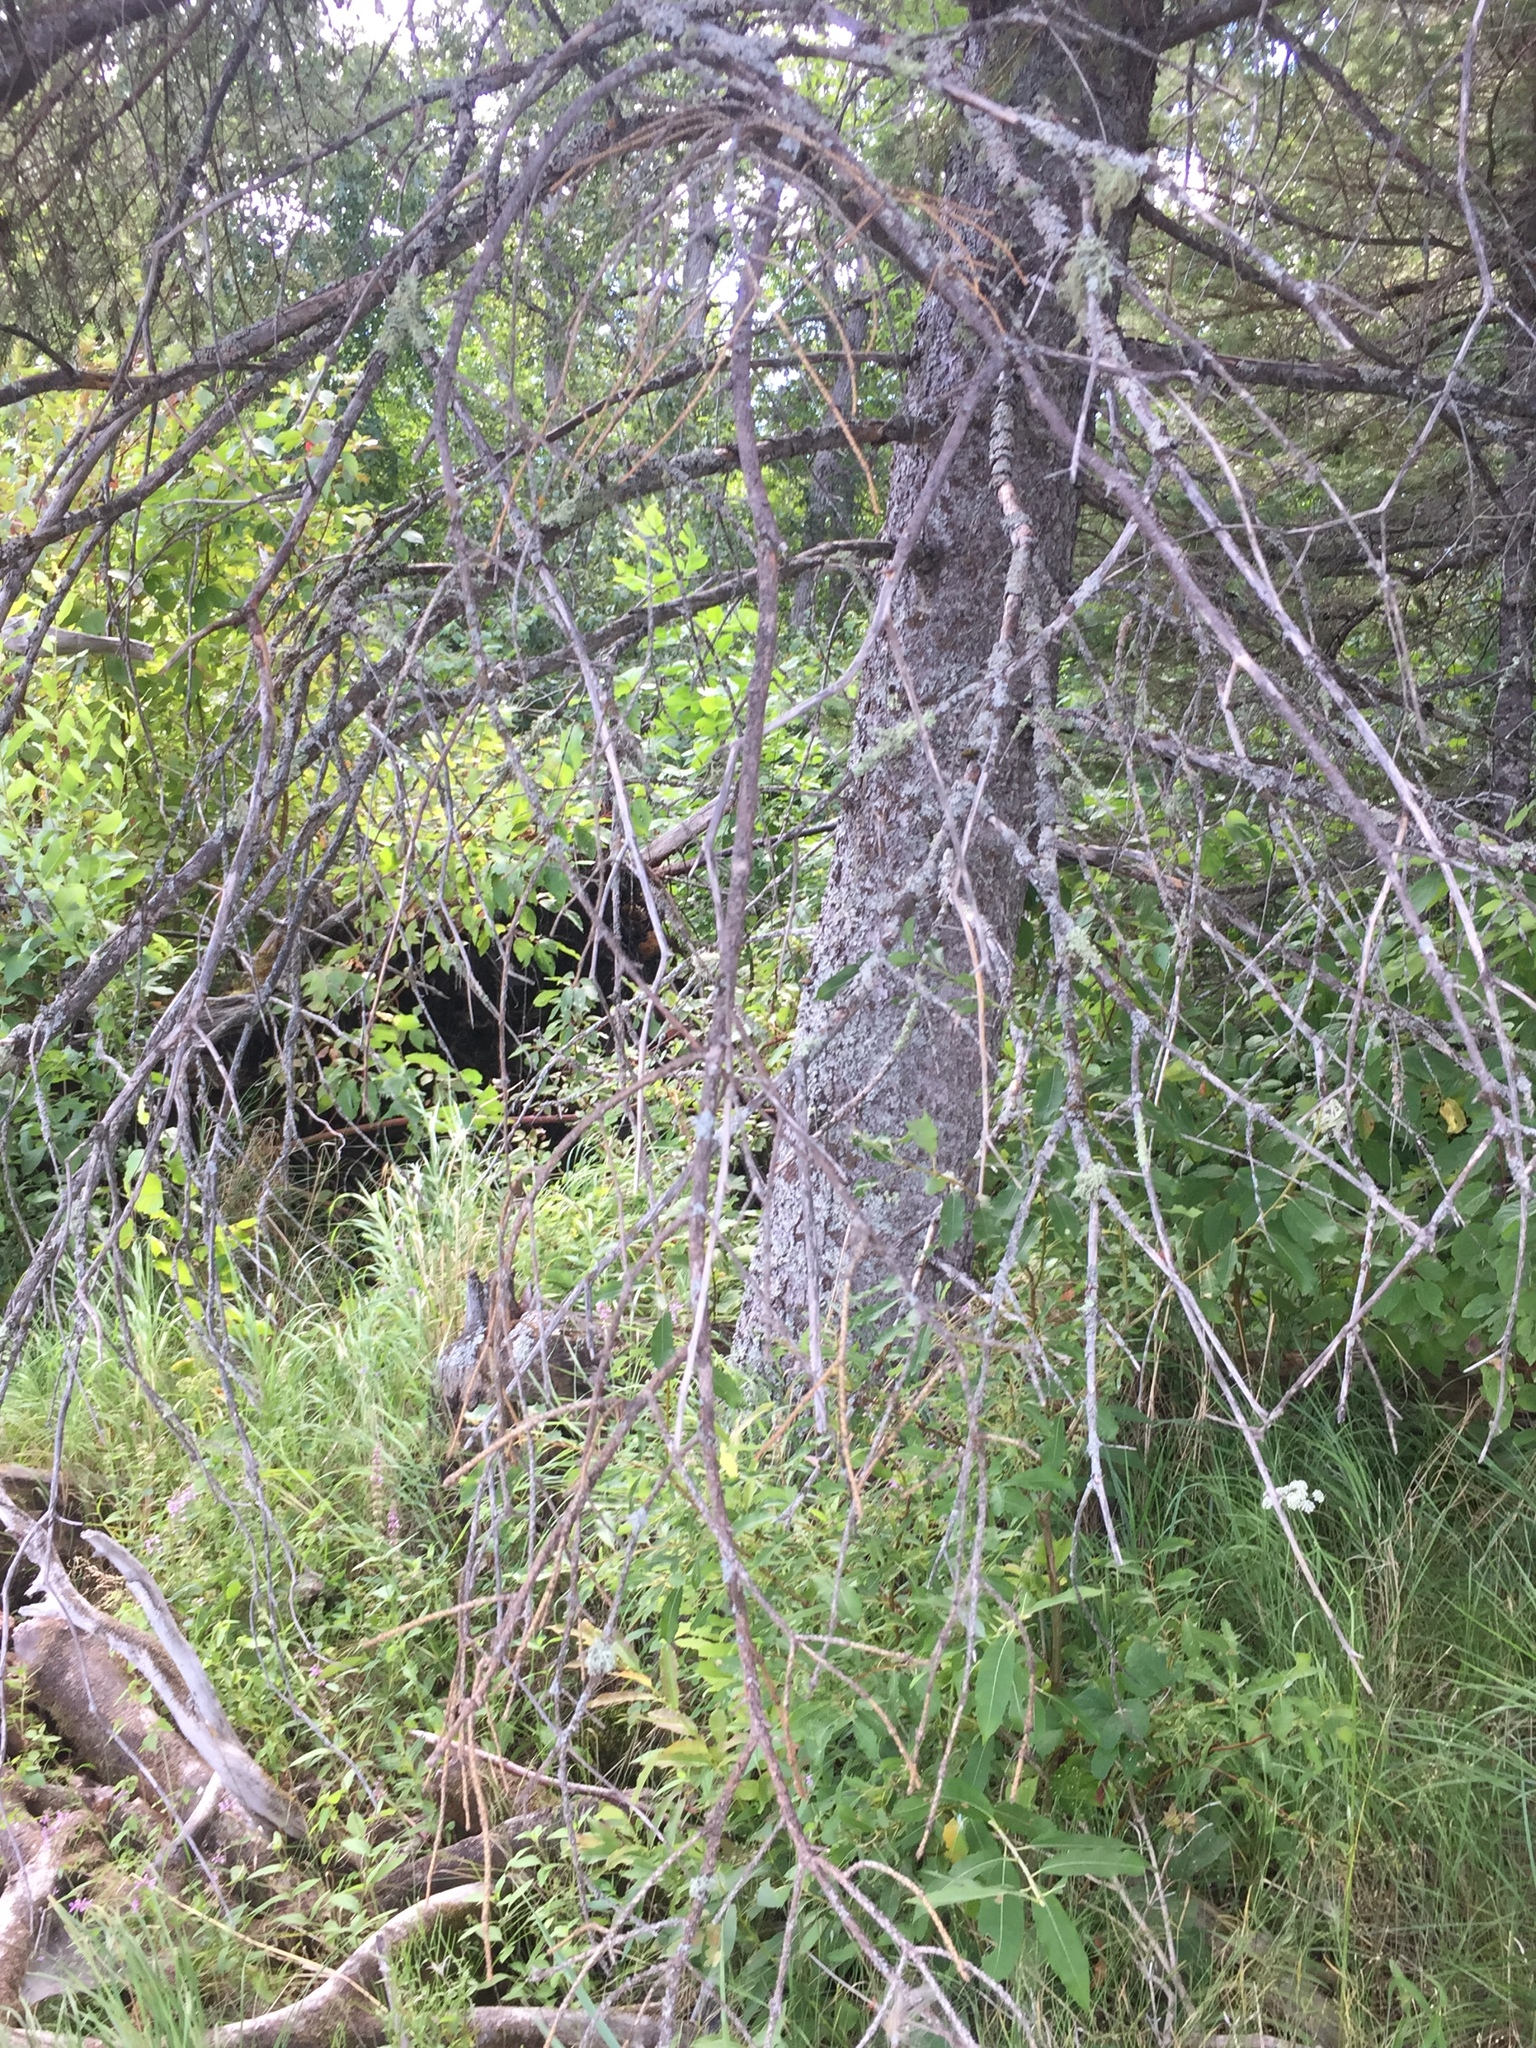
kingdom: Plantae
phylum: Tracheophyta
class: Pinopsida
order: Pinales
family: Pinaceae
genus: Picea
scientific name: Picea glauca
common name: White spruce
